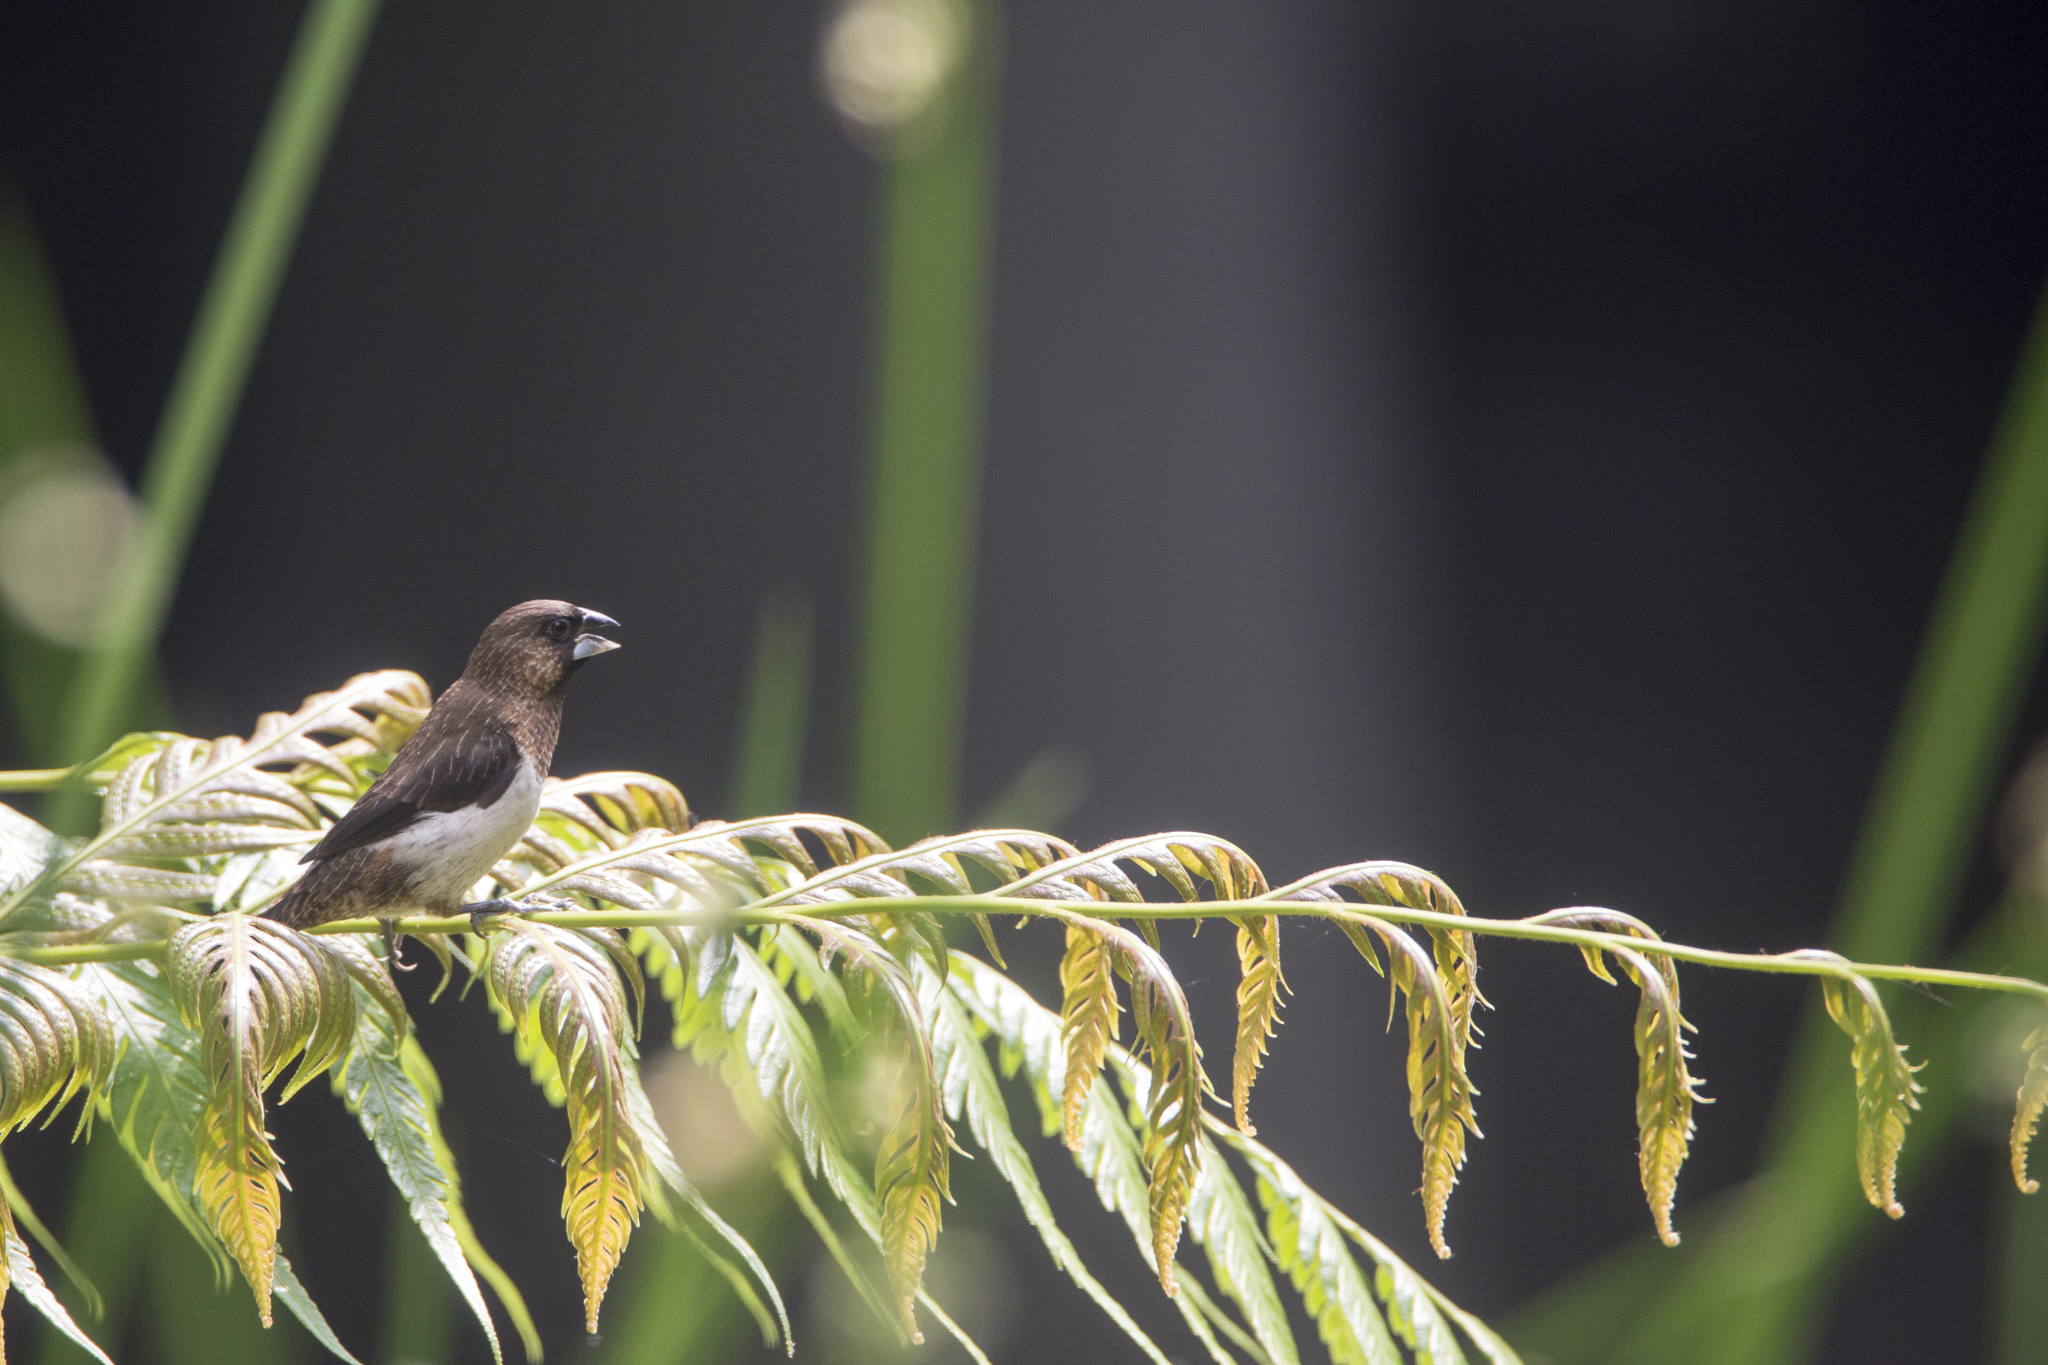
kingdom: Animalia
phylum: Chordata
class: Aves
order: Passeriformes
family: Estrildidae
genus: Lonchura
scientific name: Lonchura striata
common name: White-rumped munia
